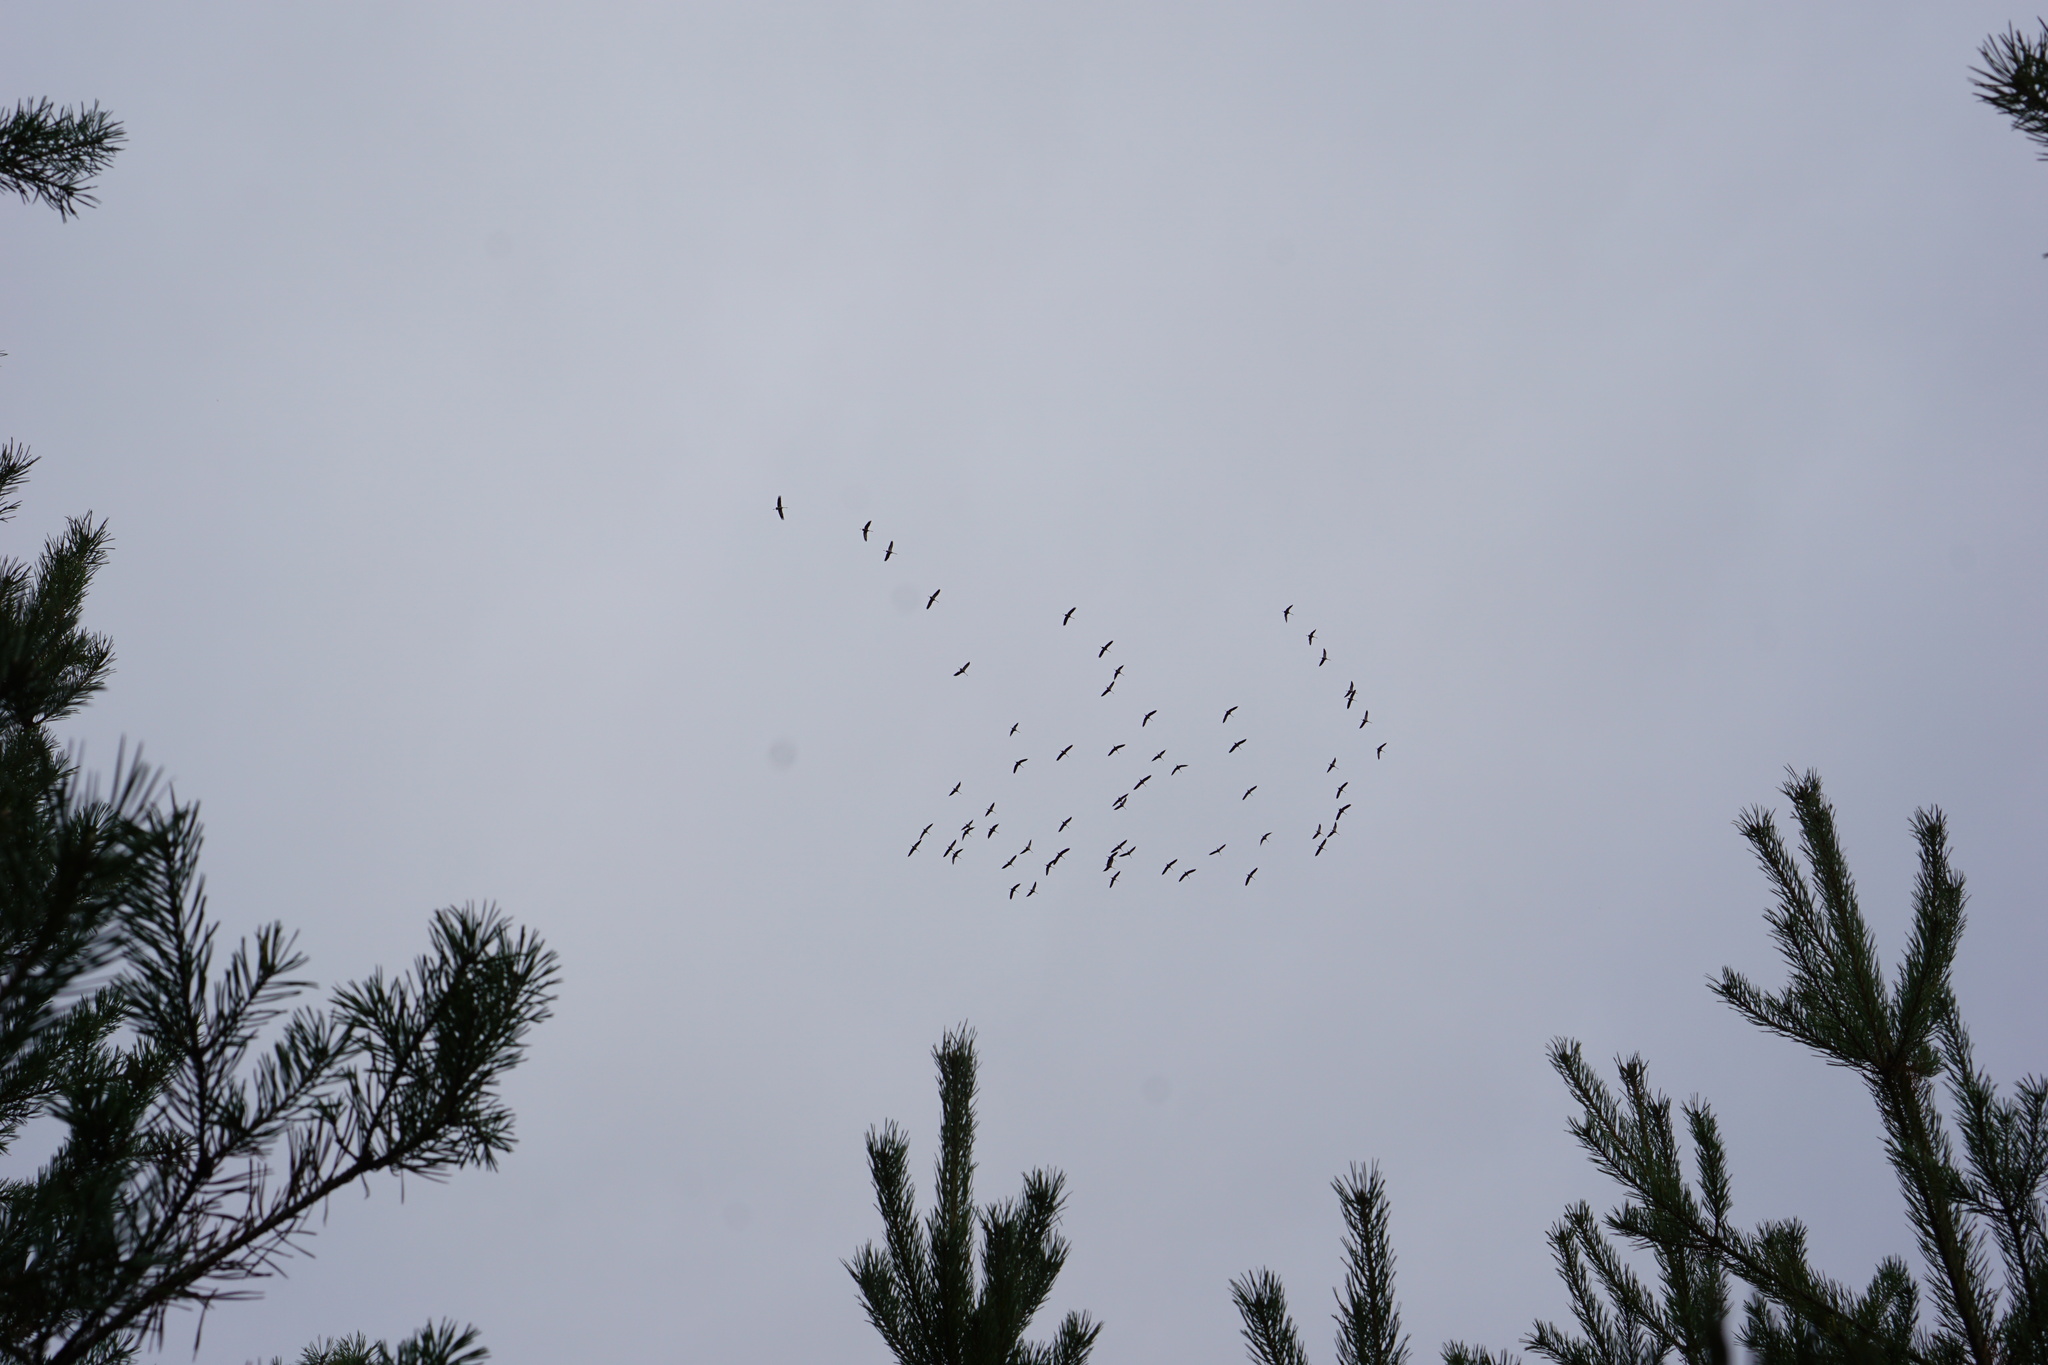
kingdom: Animalia
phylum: Chordata
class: Aves
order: Gruiformes
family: Gruidae
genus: Grus
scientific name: Grus grus
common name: Common crane
